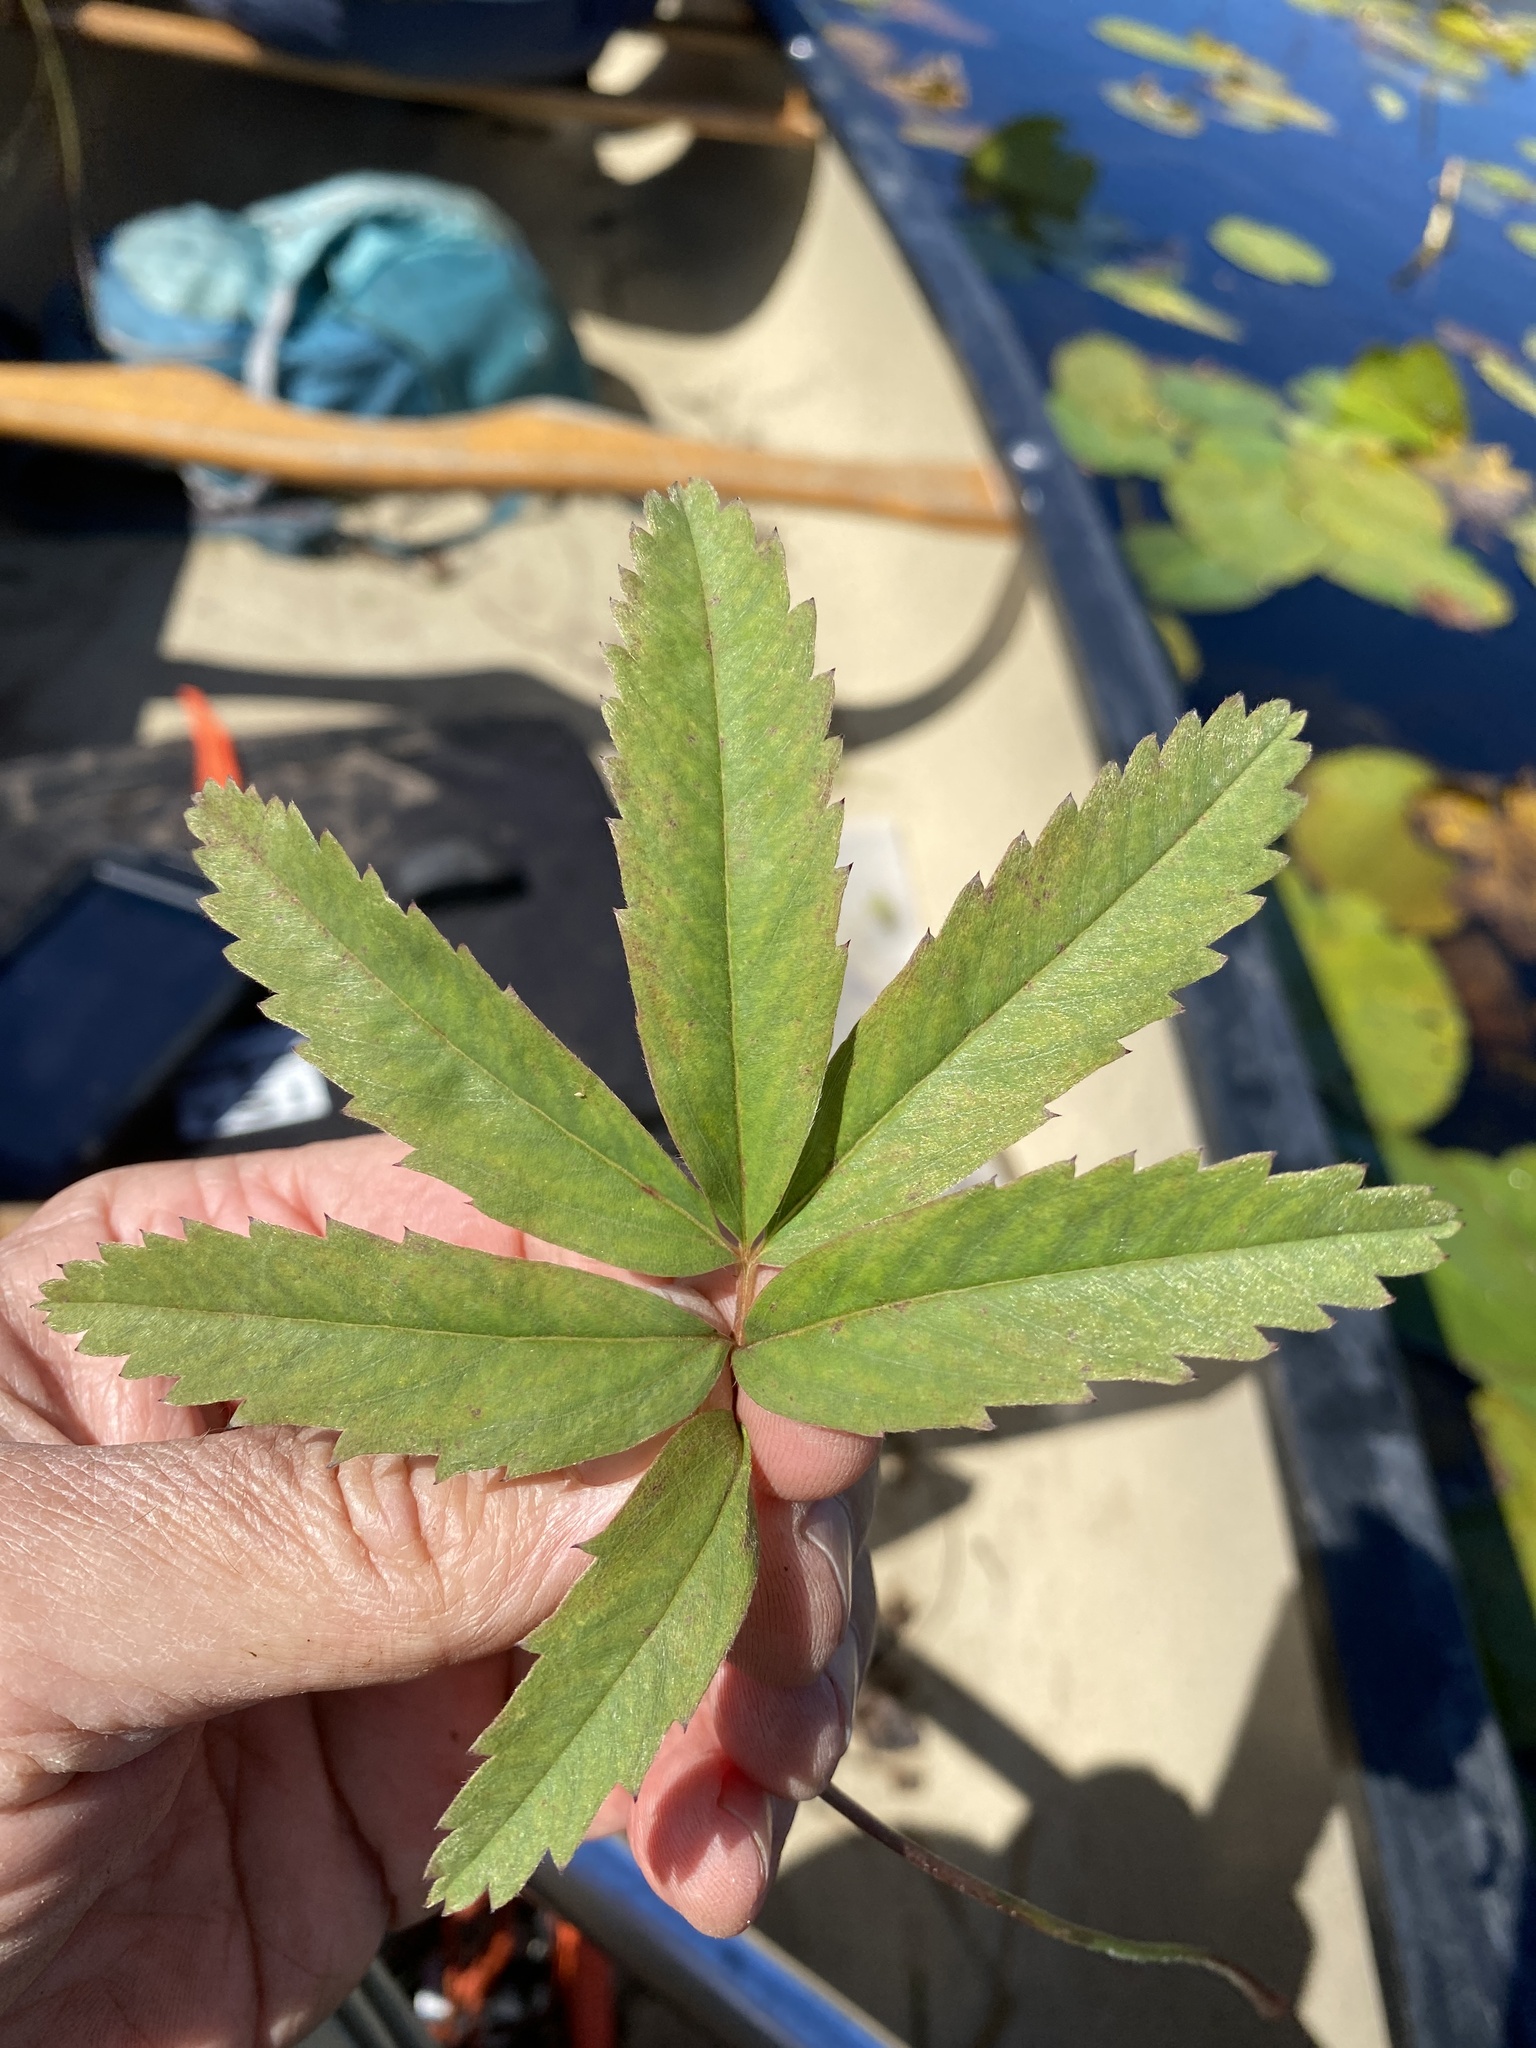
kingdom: Plantae
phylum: Tracheophyta
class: Magnoliopsida
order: Rosales
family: Rosaceae
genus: Comarum
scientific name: Comarum palustre
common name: Marsh cinquefoil
